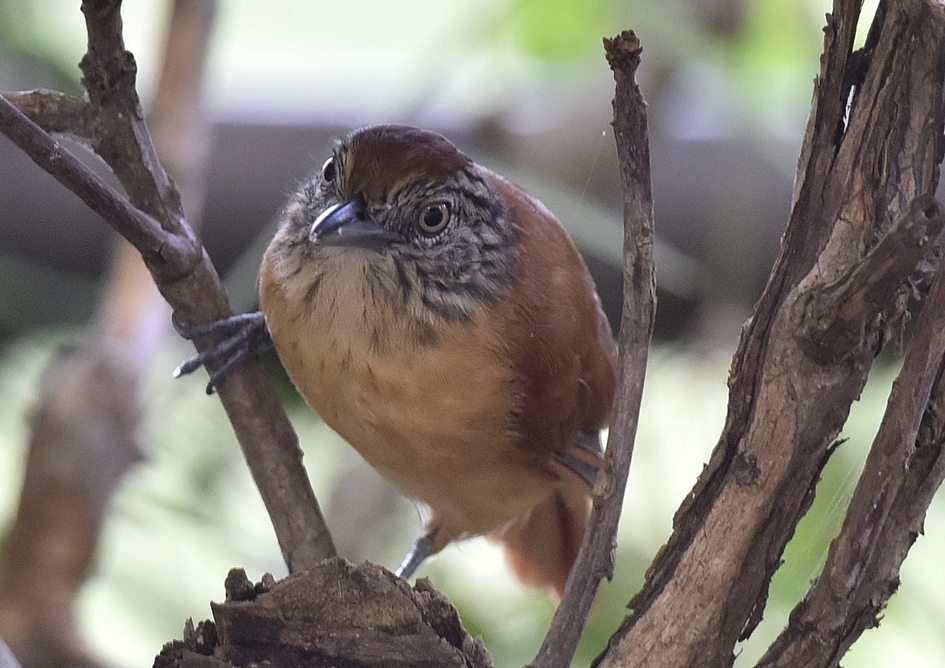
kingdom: Animalia
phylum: Chordata
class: Aves
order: Passeriformes
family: Thamnophilidae
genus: Thamnophilus
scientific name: Thamnophilus doliatus
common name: Barred antshrike
